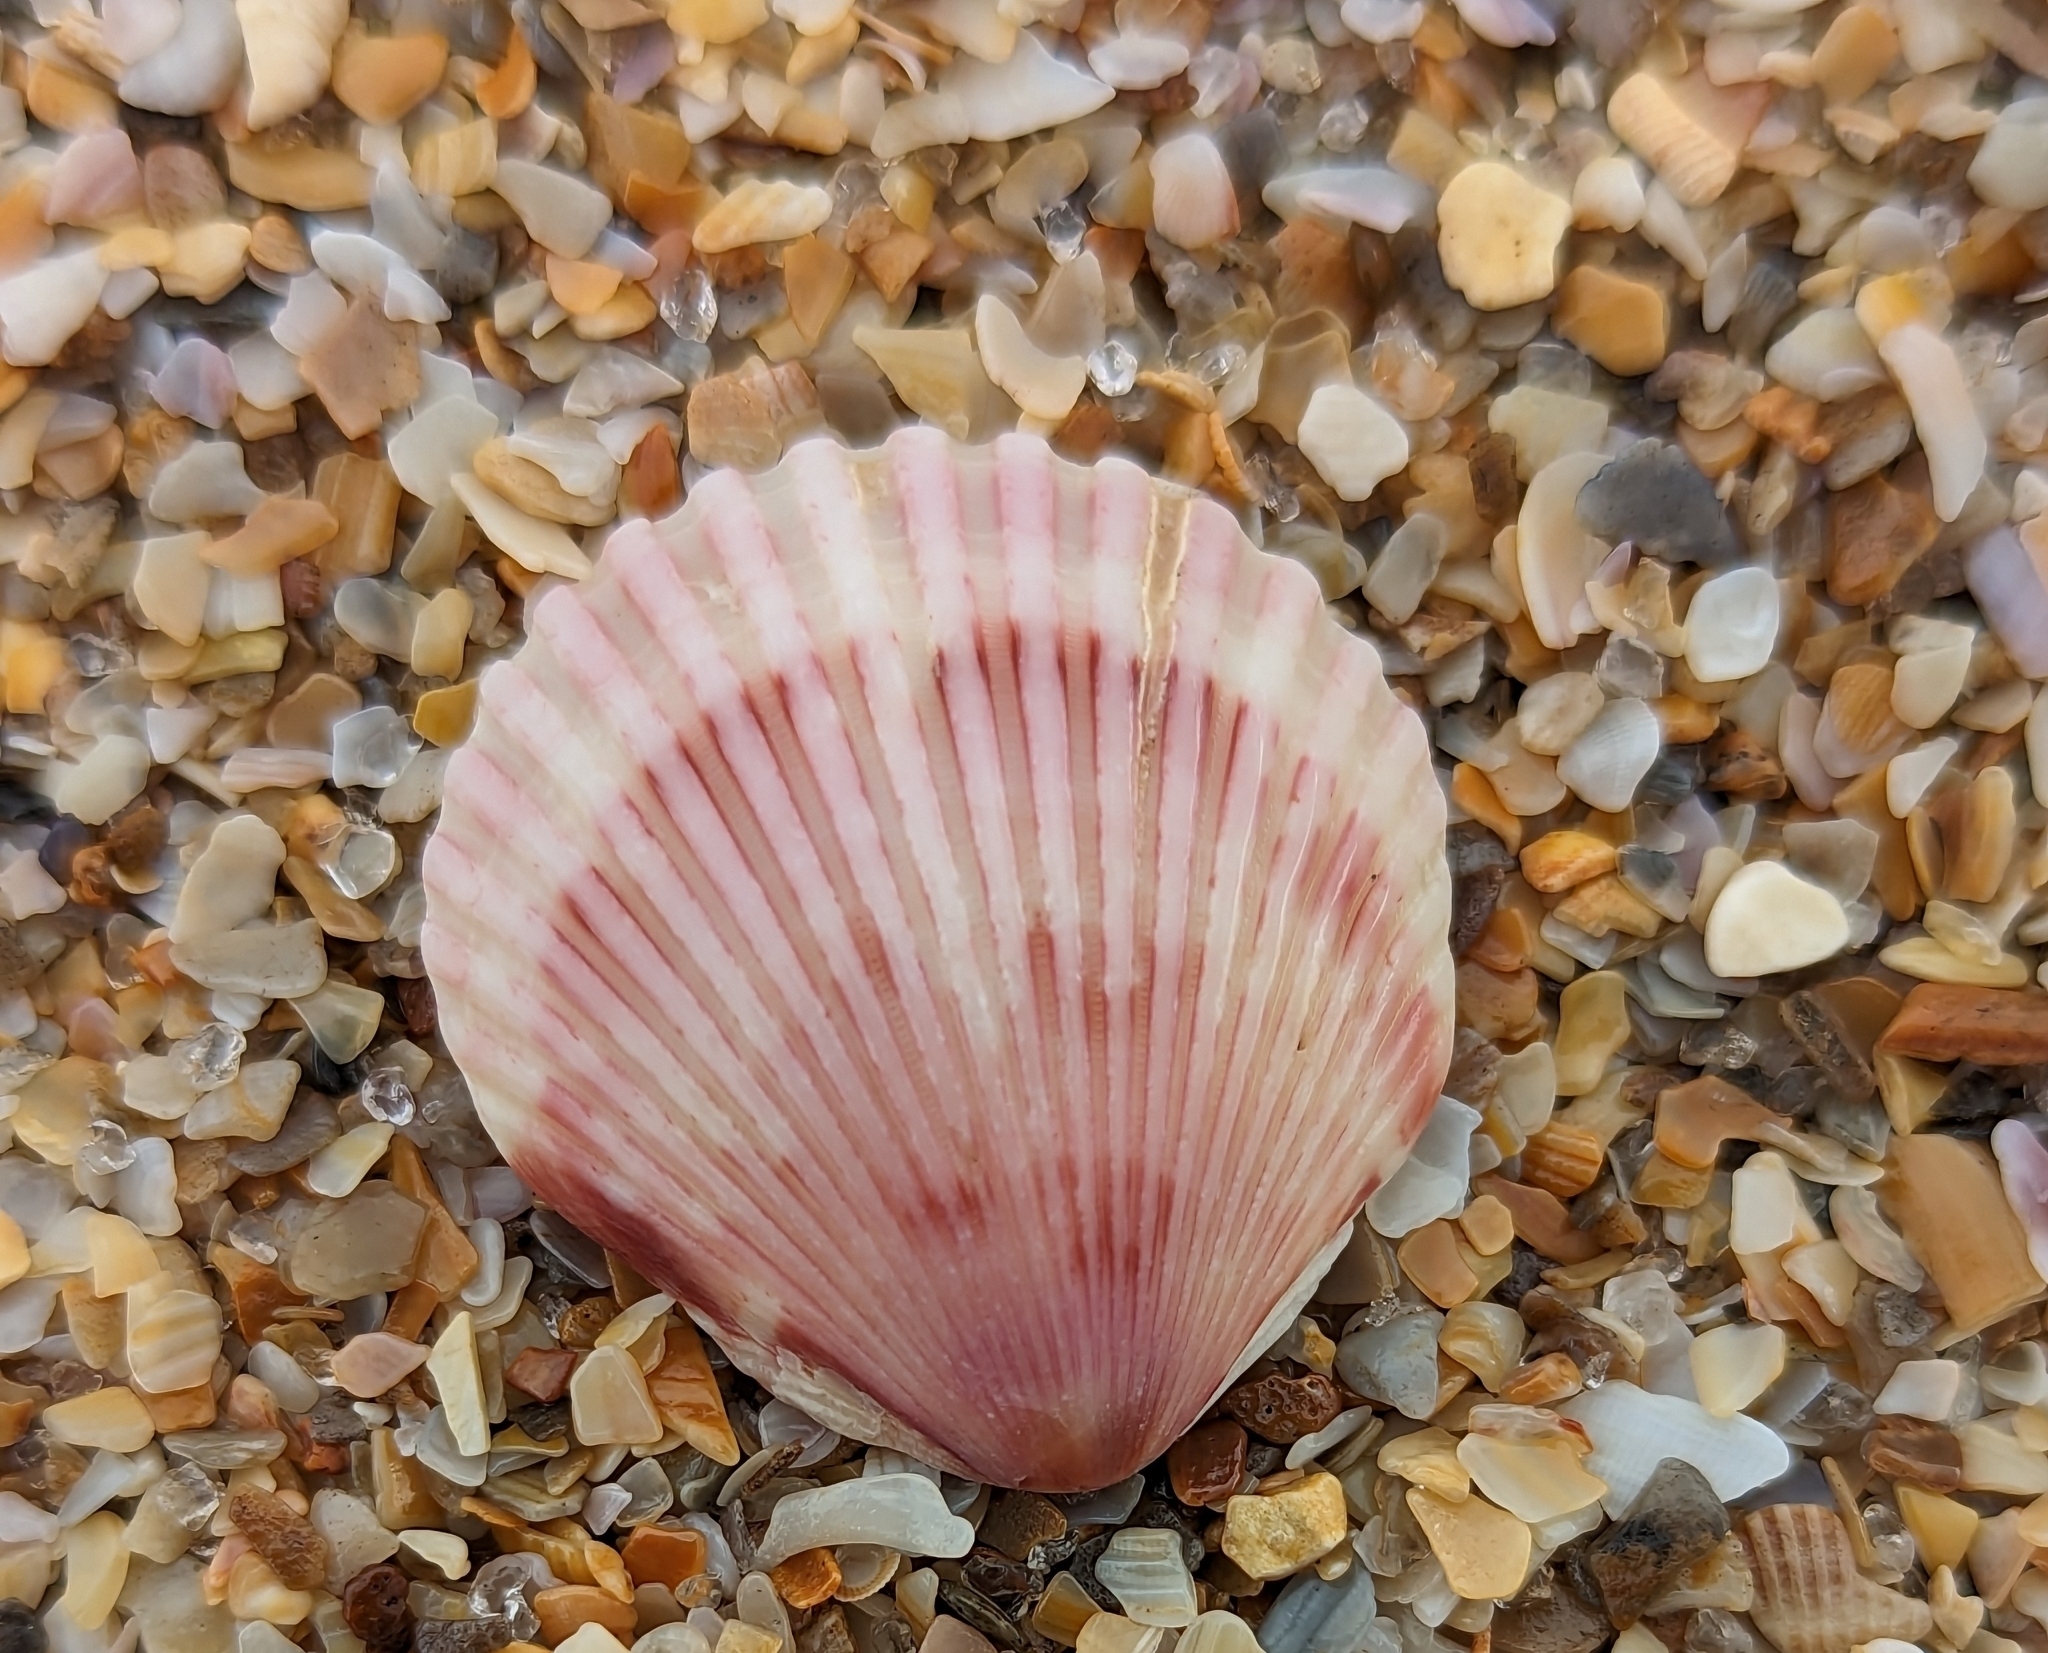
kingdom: Animalia
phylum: Mollusca
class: Bivalvia
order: Pectinida
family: Pectinidae
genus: Argopecten
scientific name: Argopecten gibbus
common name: Atlantic calico scallop
